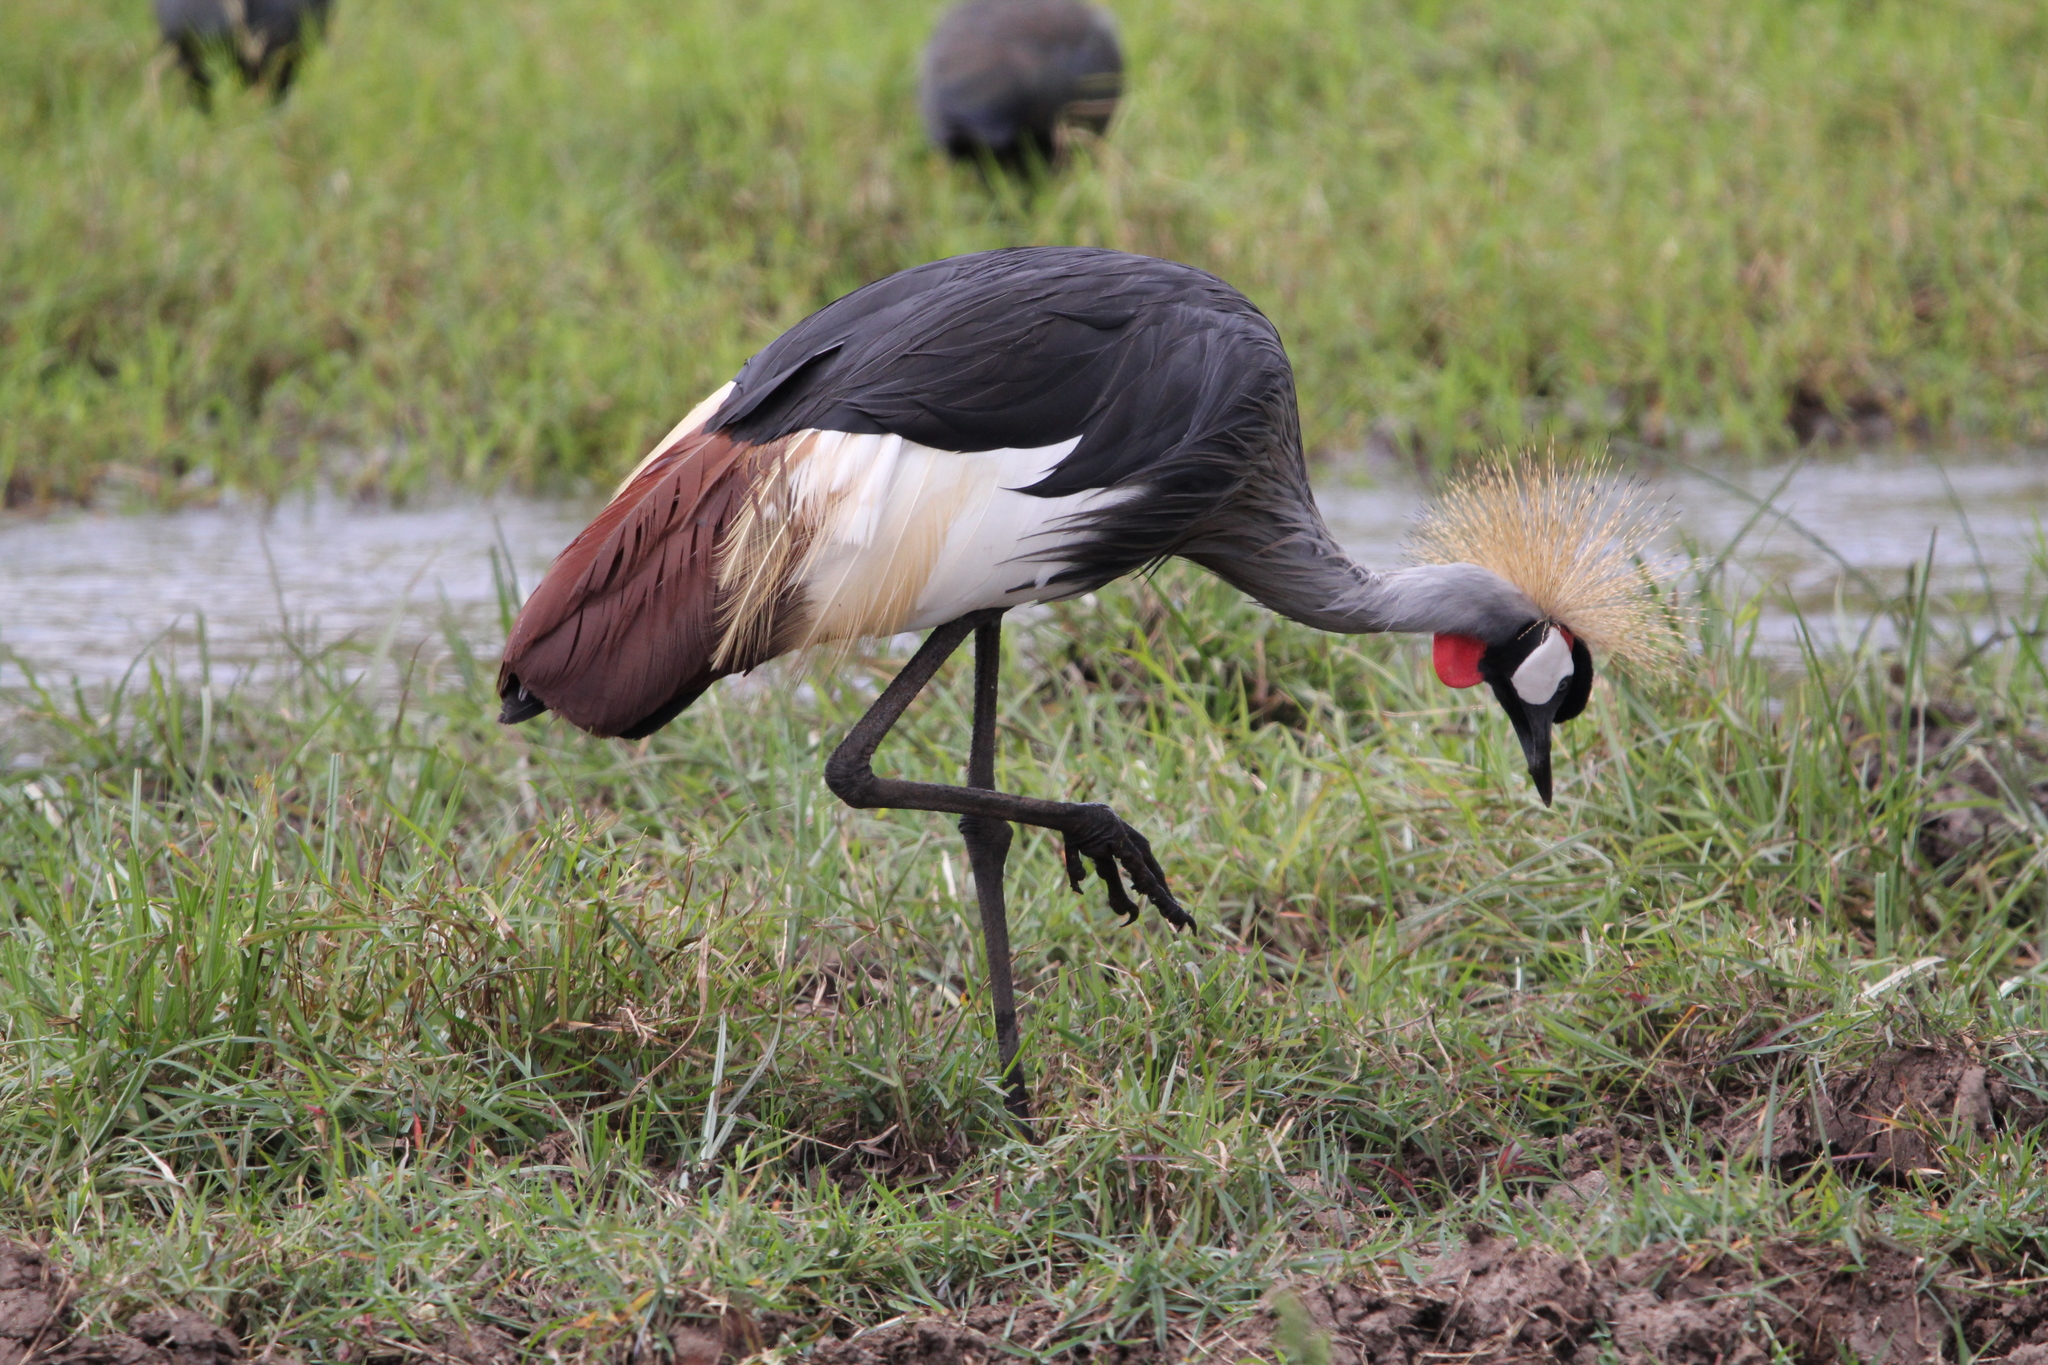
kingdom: Animalia
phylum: Chordata
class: Aves
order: Gruiformes
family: Gruidae
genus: Balearica
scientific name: Balearica regulorum
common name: Grey crowned crane
